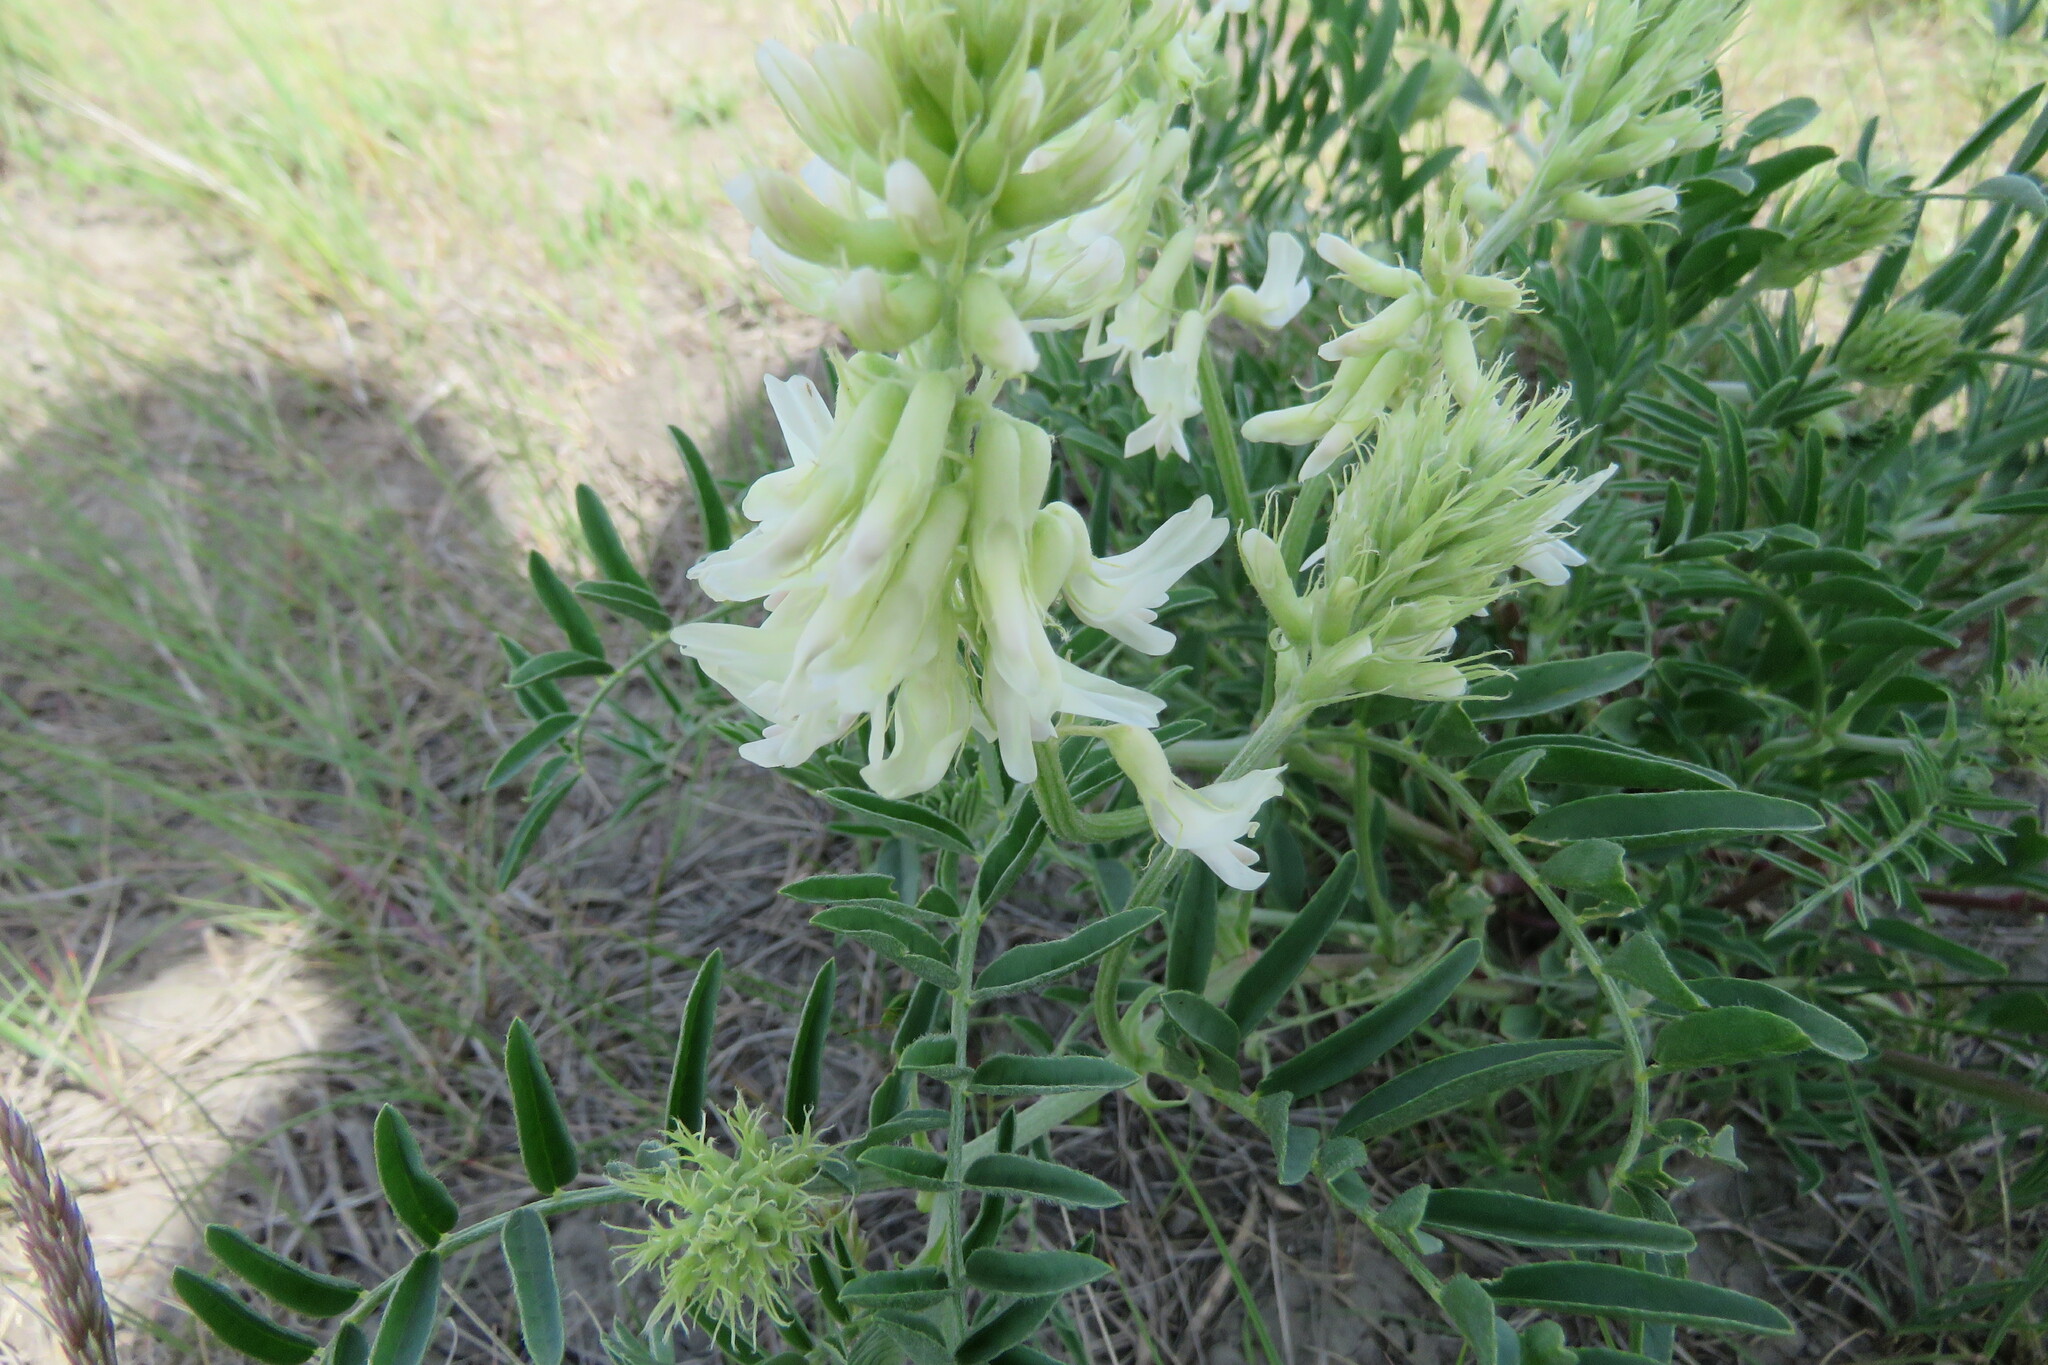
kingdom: Plantae
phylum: Tracheophyta
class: Magnoliopsida
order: Fabales
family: Fabaceae
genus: Astragalus
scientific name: Astragalus racemosus
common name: Alkali milk-vetch
